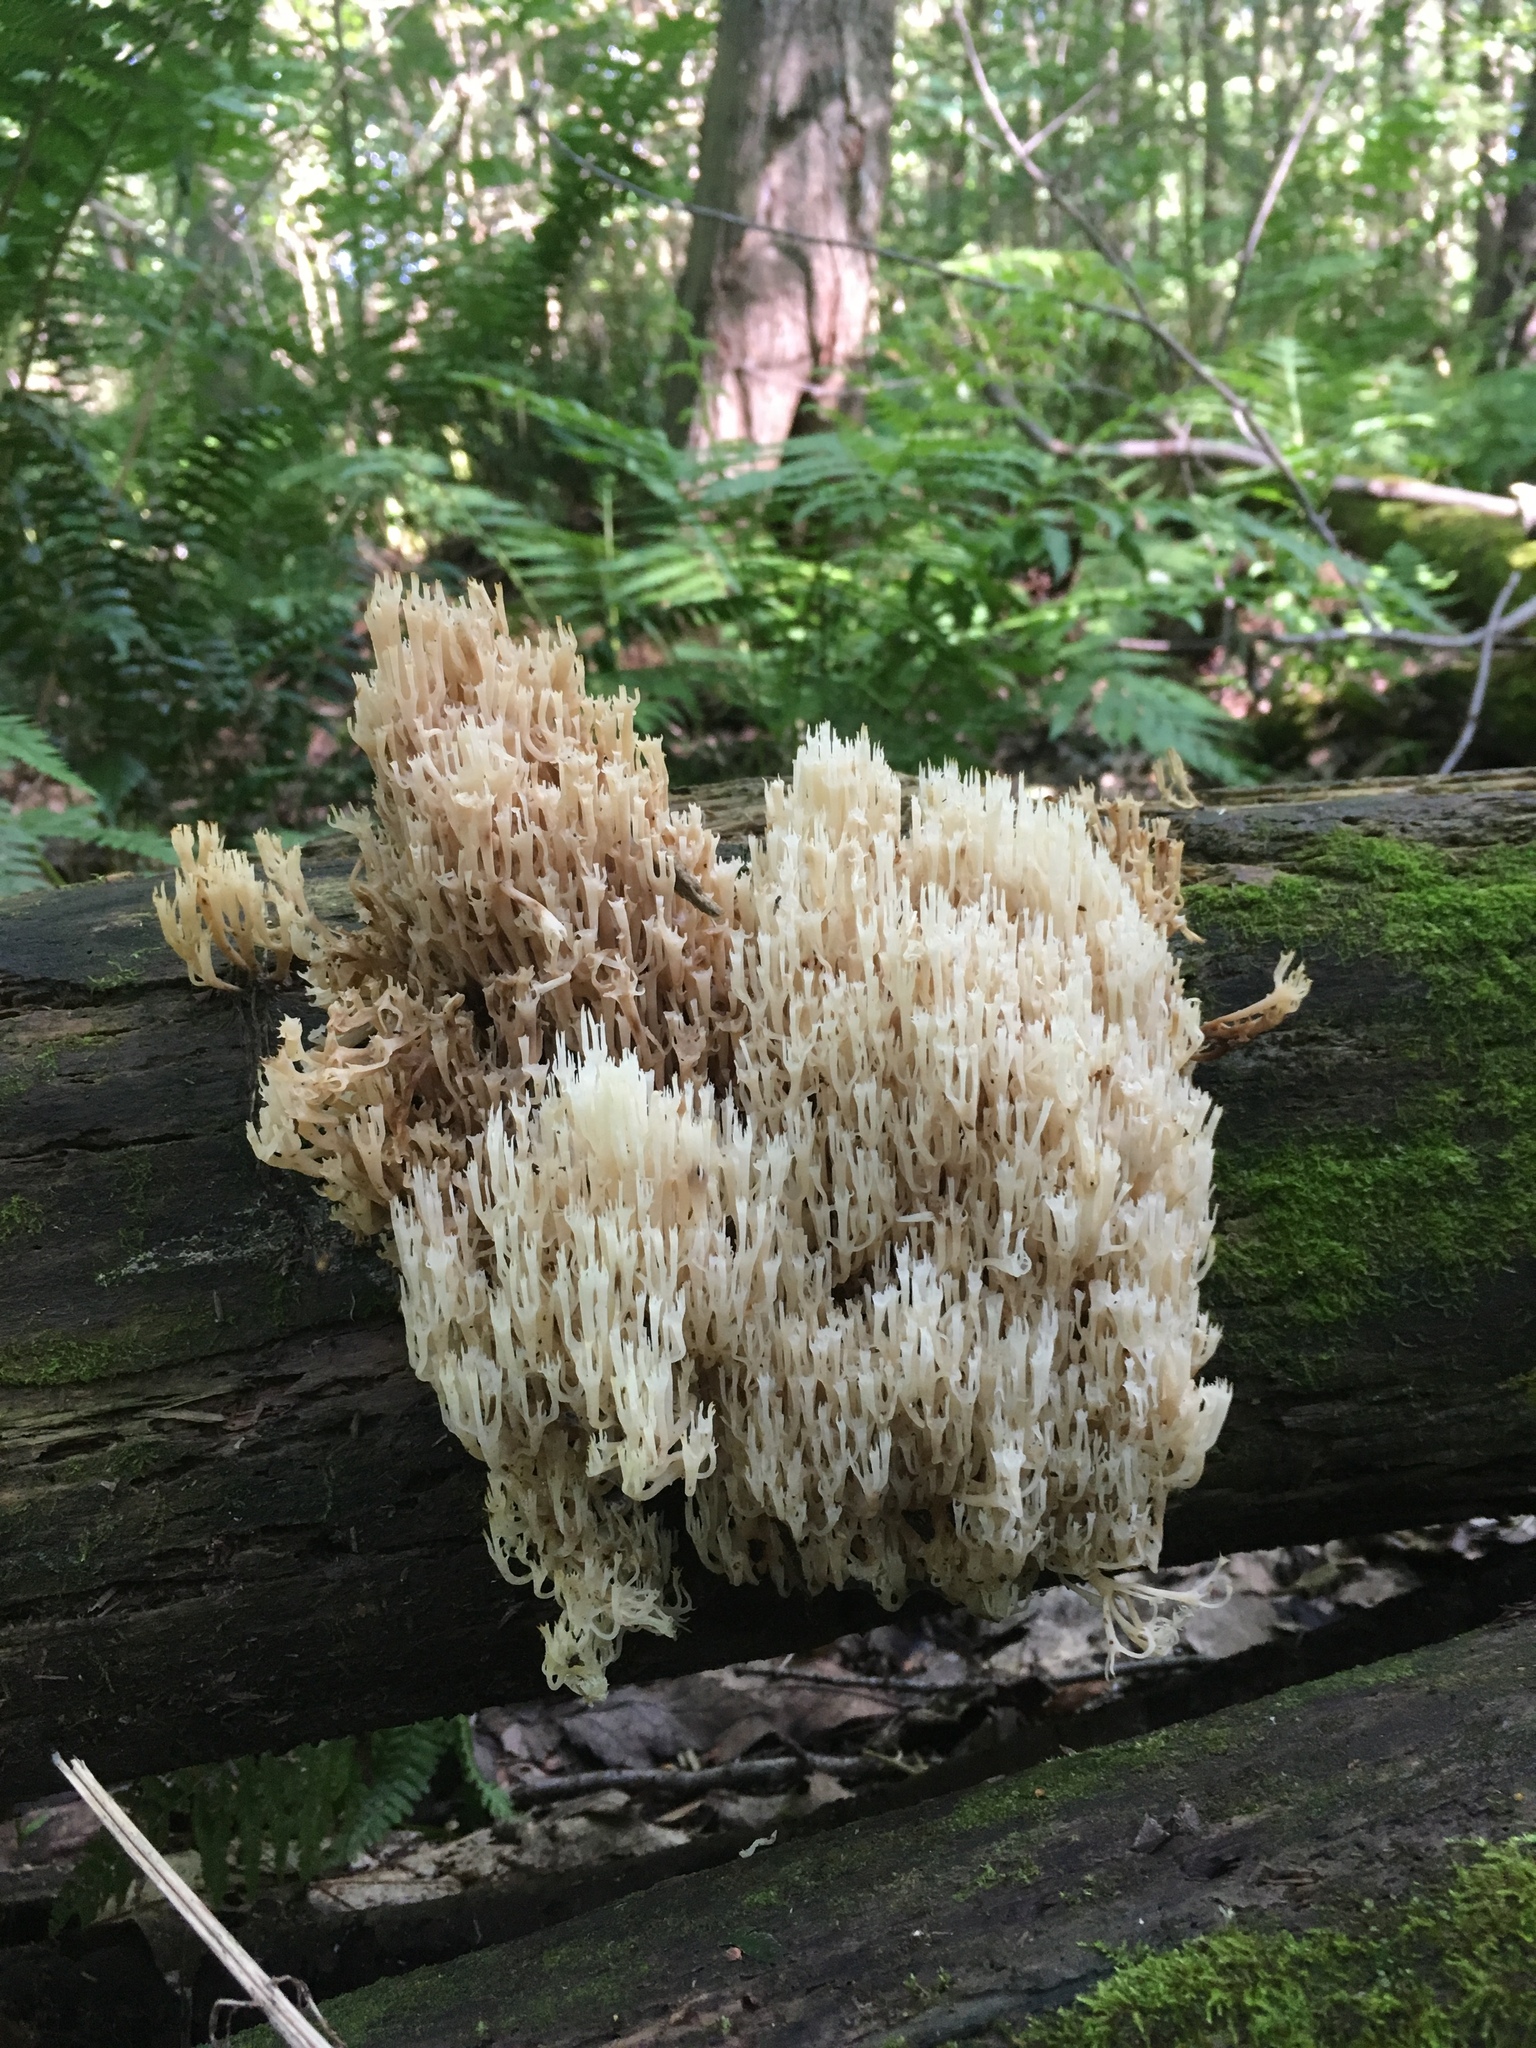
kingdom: Fungi
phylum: Basidiomycota
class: Agaricomycetes
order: Russulales
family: Auriscalpiaceae
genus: Artomyces
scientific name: Artomyces pyxidatus
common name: Crown-tipped coral fungus
